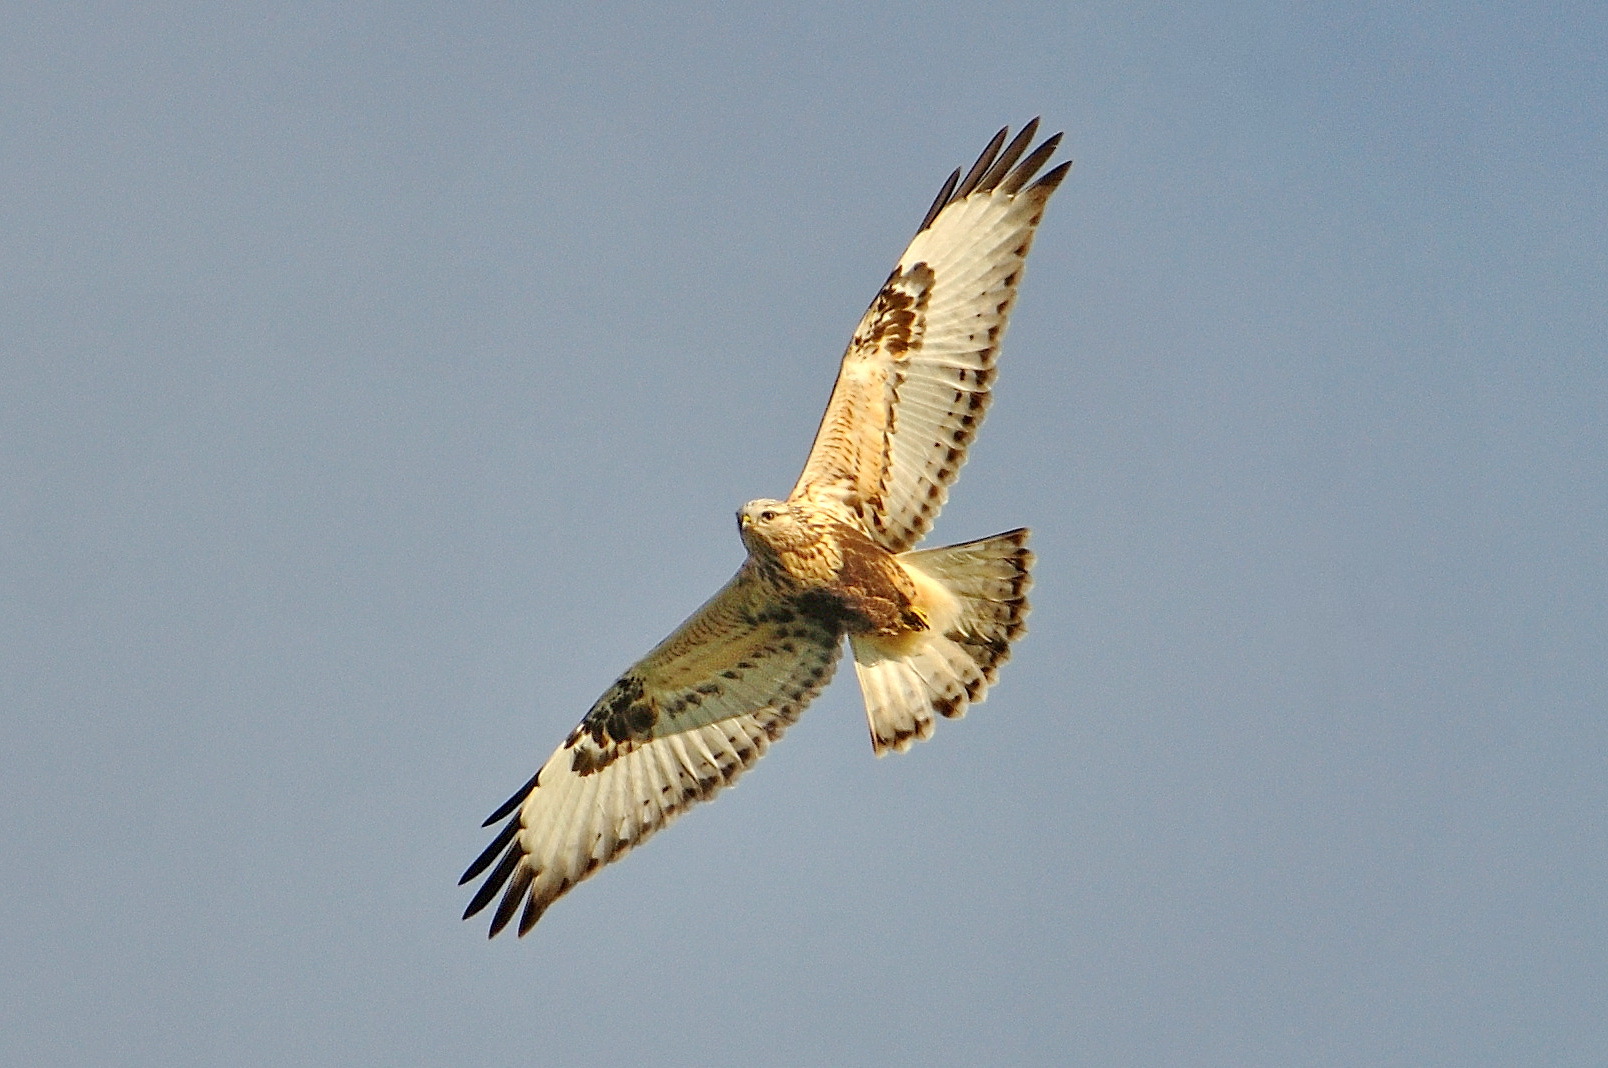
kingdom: Animalia
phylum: Chordata
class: Aves
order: Accipitriformes
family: Accipitridae
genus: Buteo
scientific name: Buteo lagopus
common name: Rough-legged buzzard
